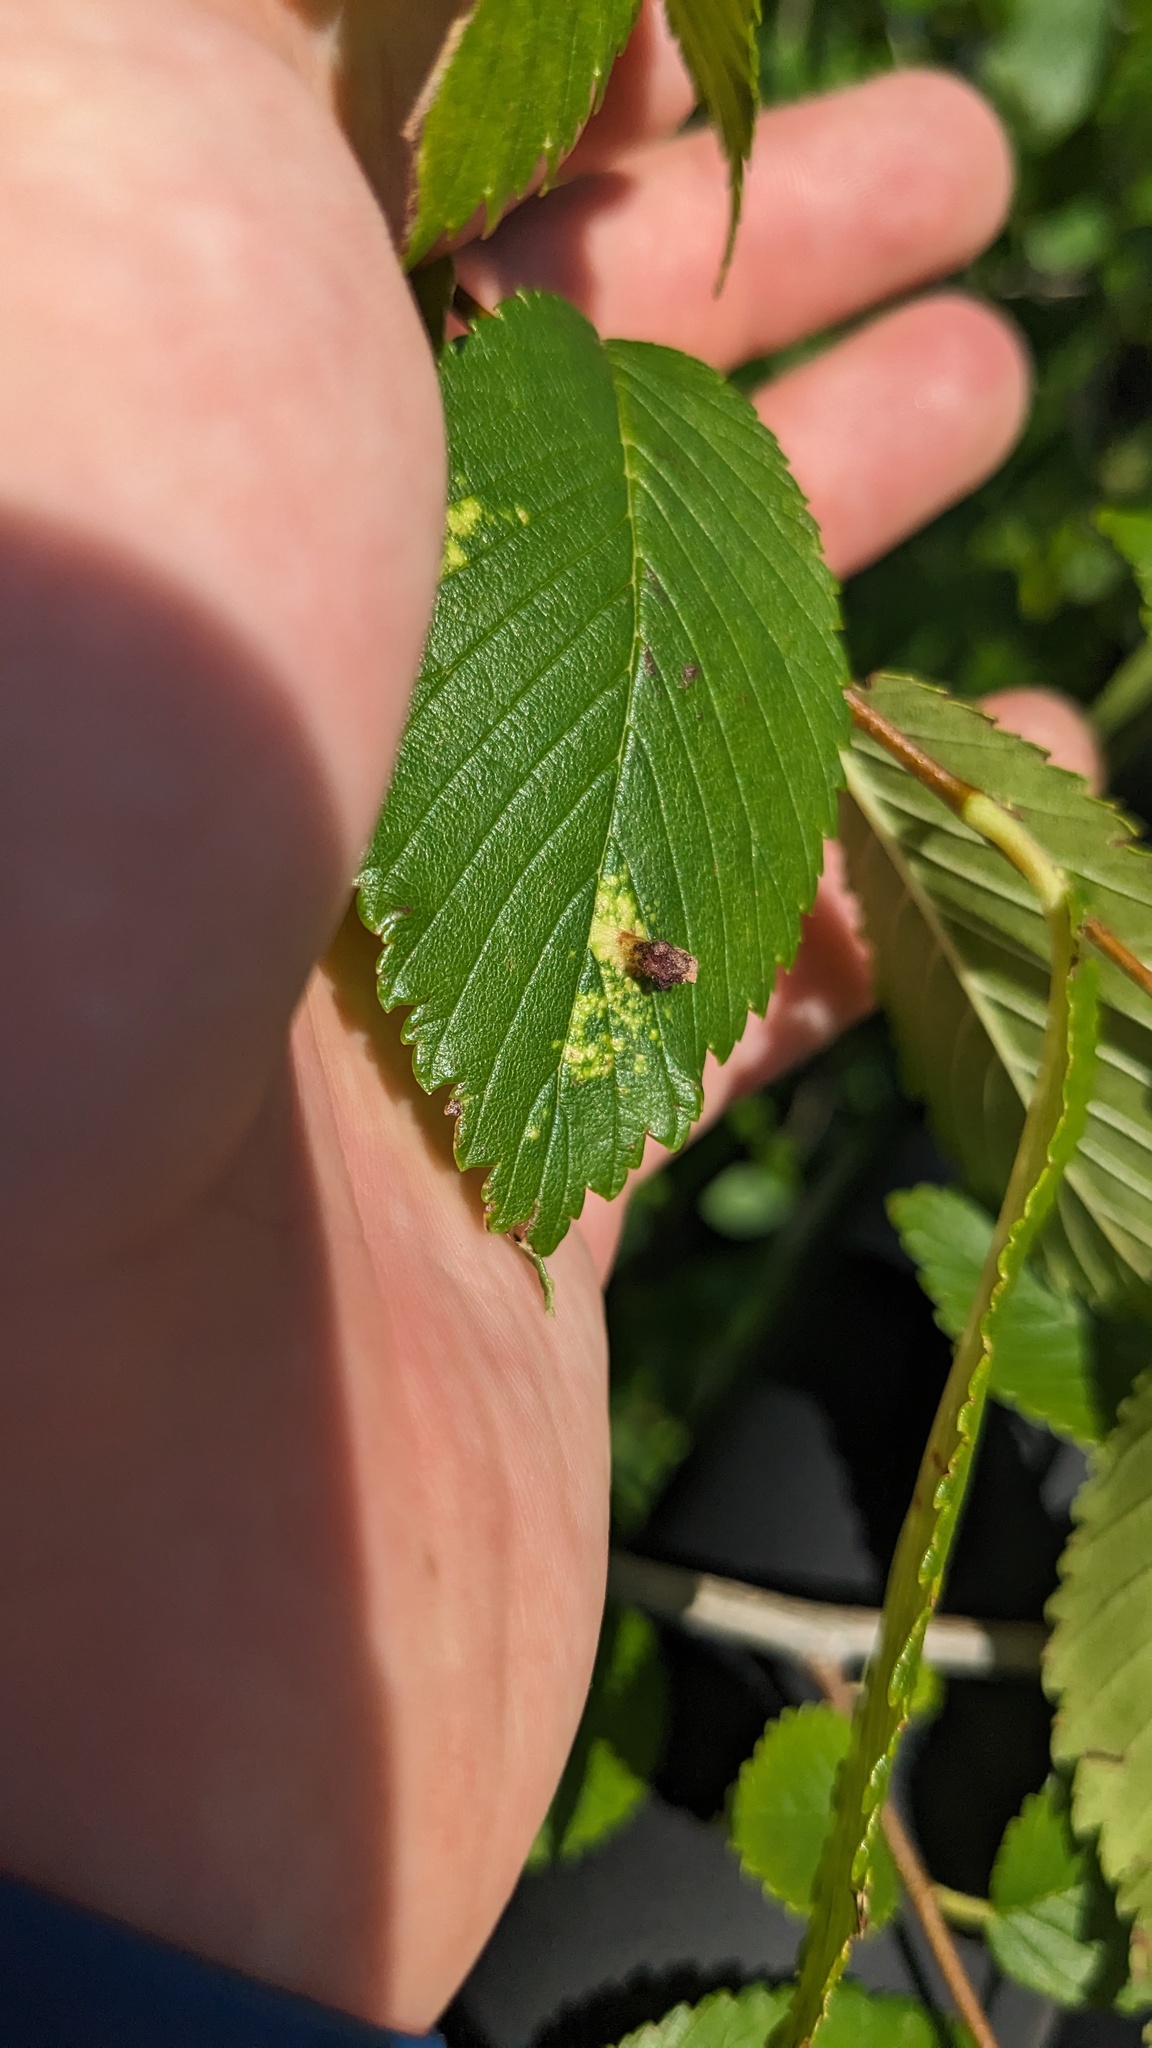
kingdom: Animalia
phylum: Arthropoda
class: Insecta
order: Hemiptera
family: Aphididae
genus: Tetraneura
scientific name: Tetraneura nigriabdominalis
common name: Aphid
